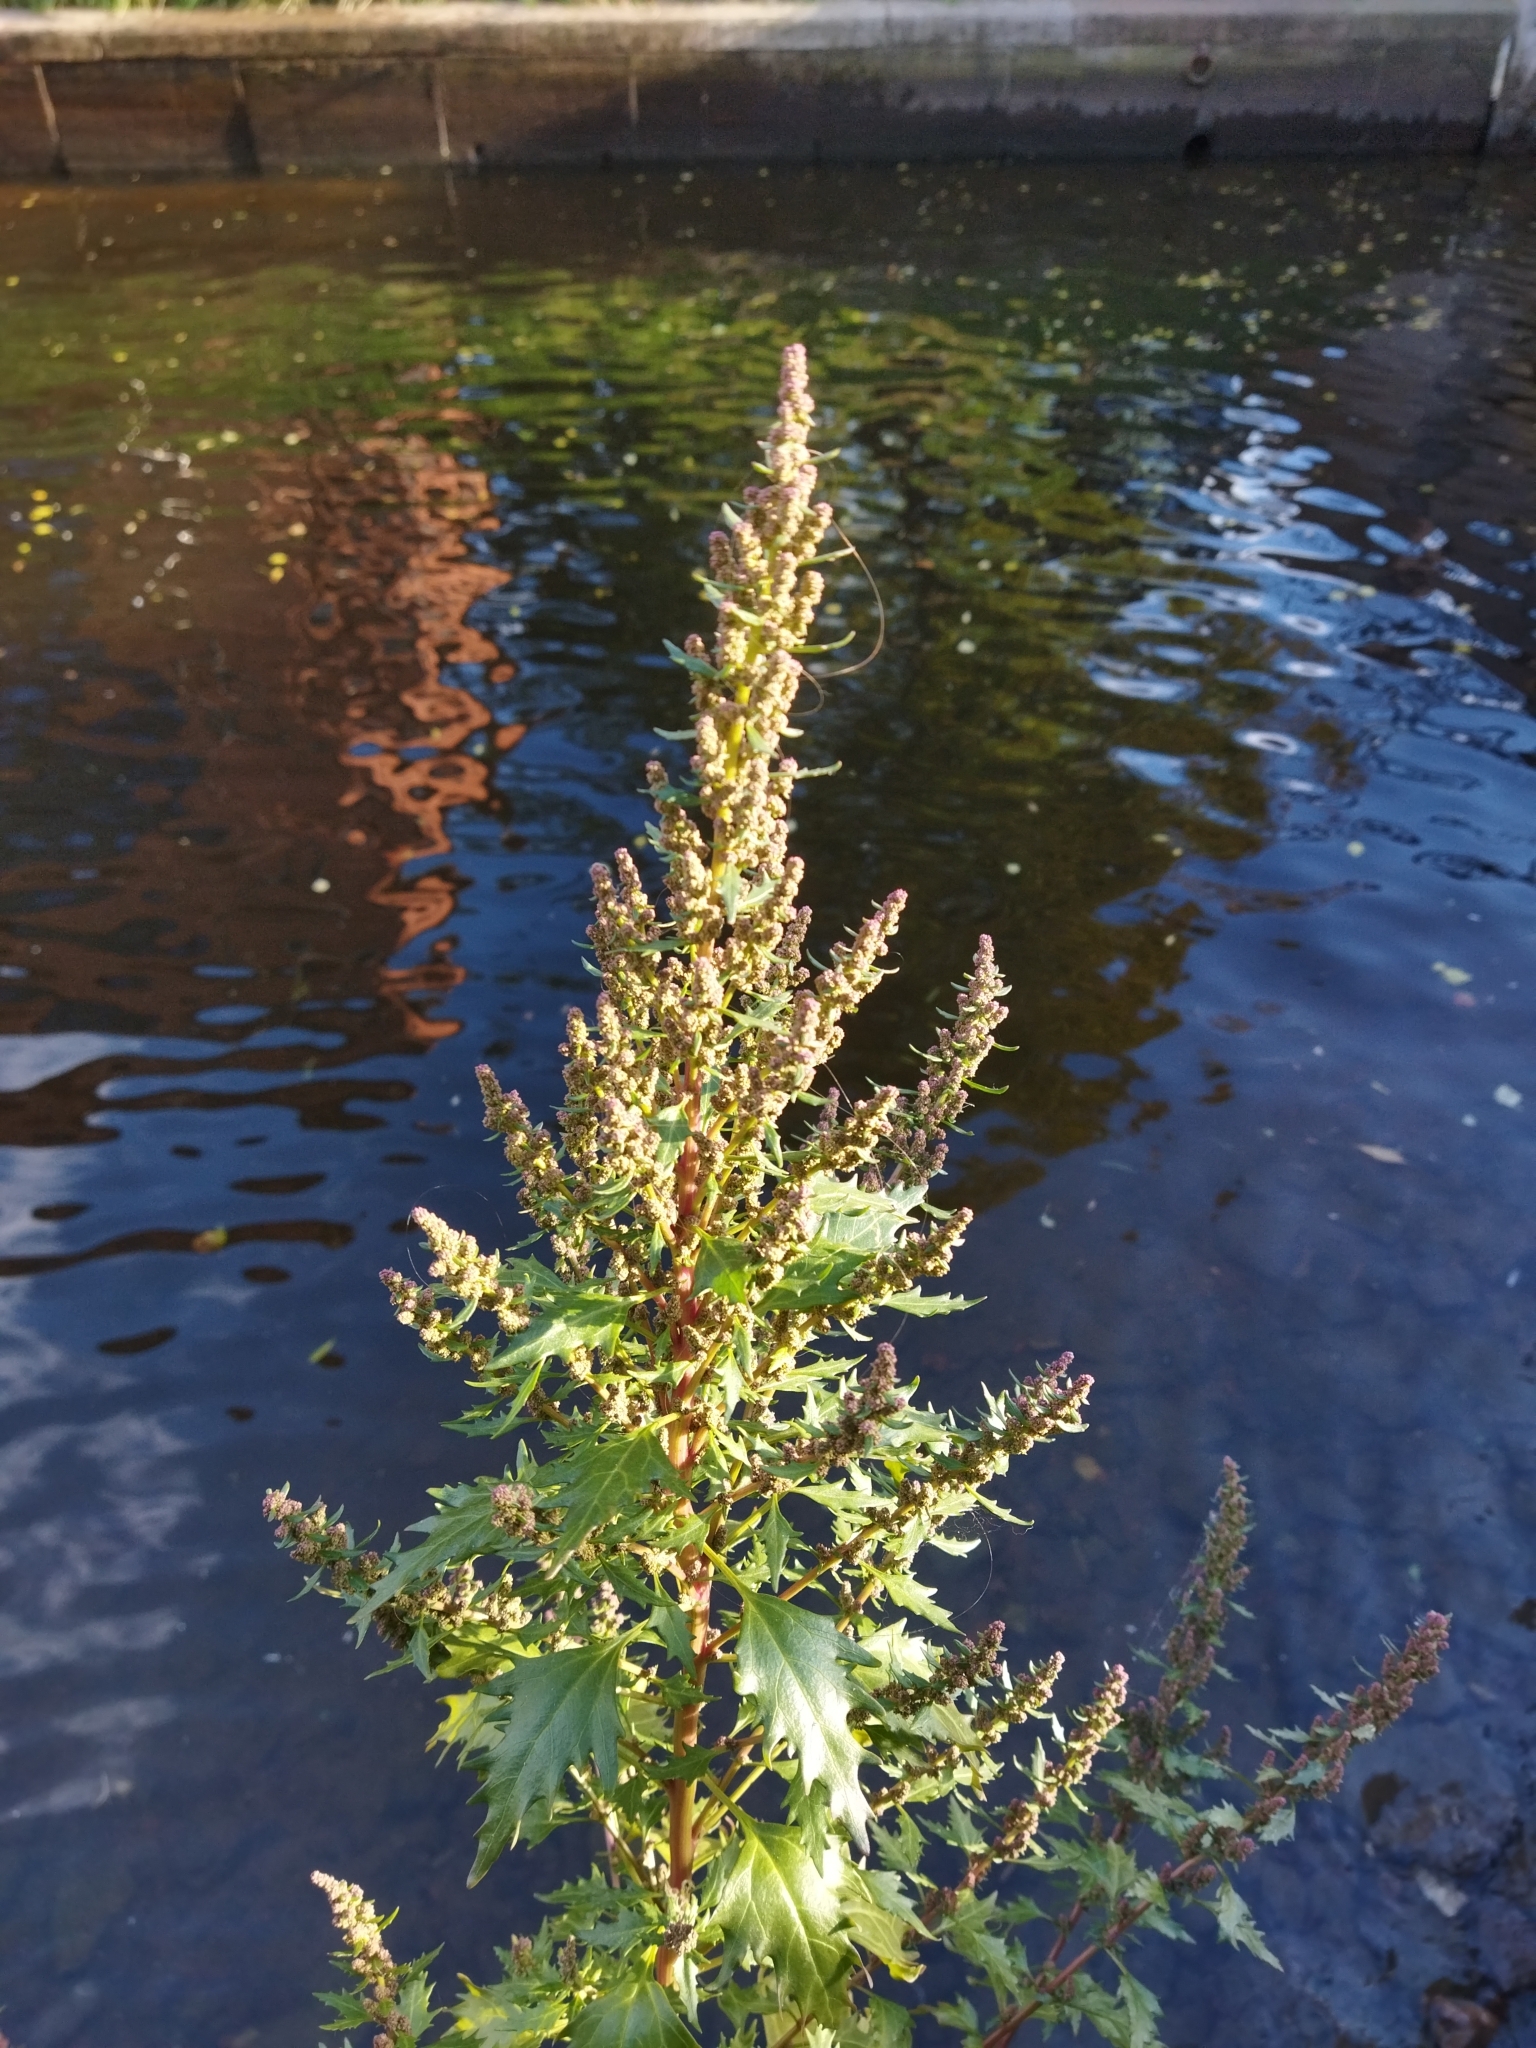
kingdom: Plantae
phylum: Tracheophyta
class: Magnoliopsida
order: Caryophyllales
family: Amaranthaceae
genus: Oxybasis
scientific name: Oxybasis rubra
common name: Red goosefoot
